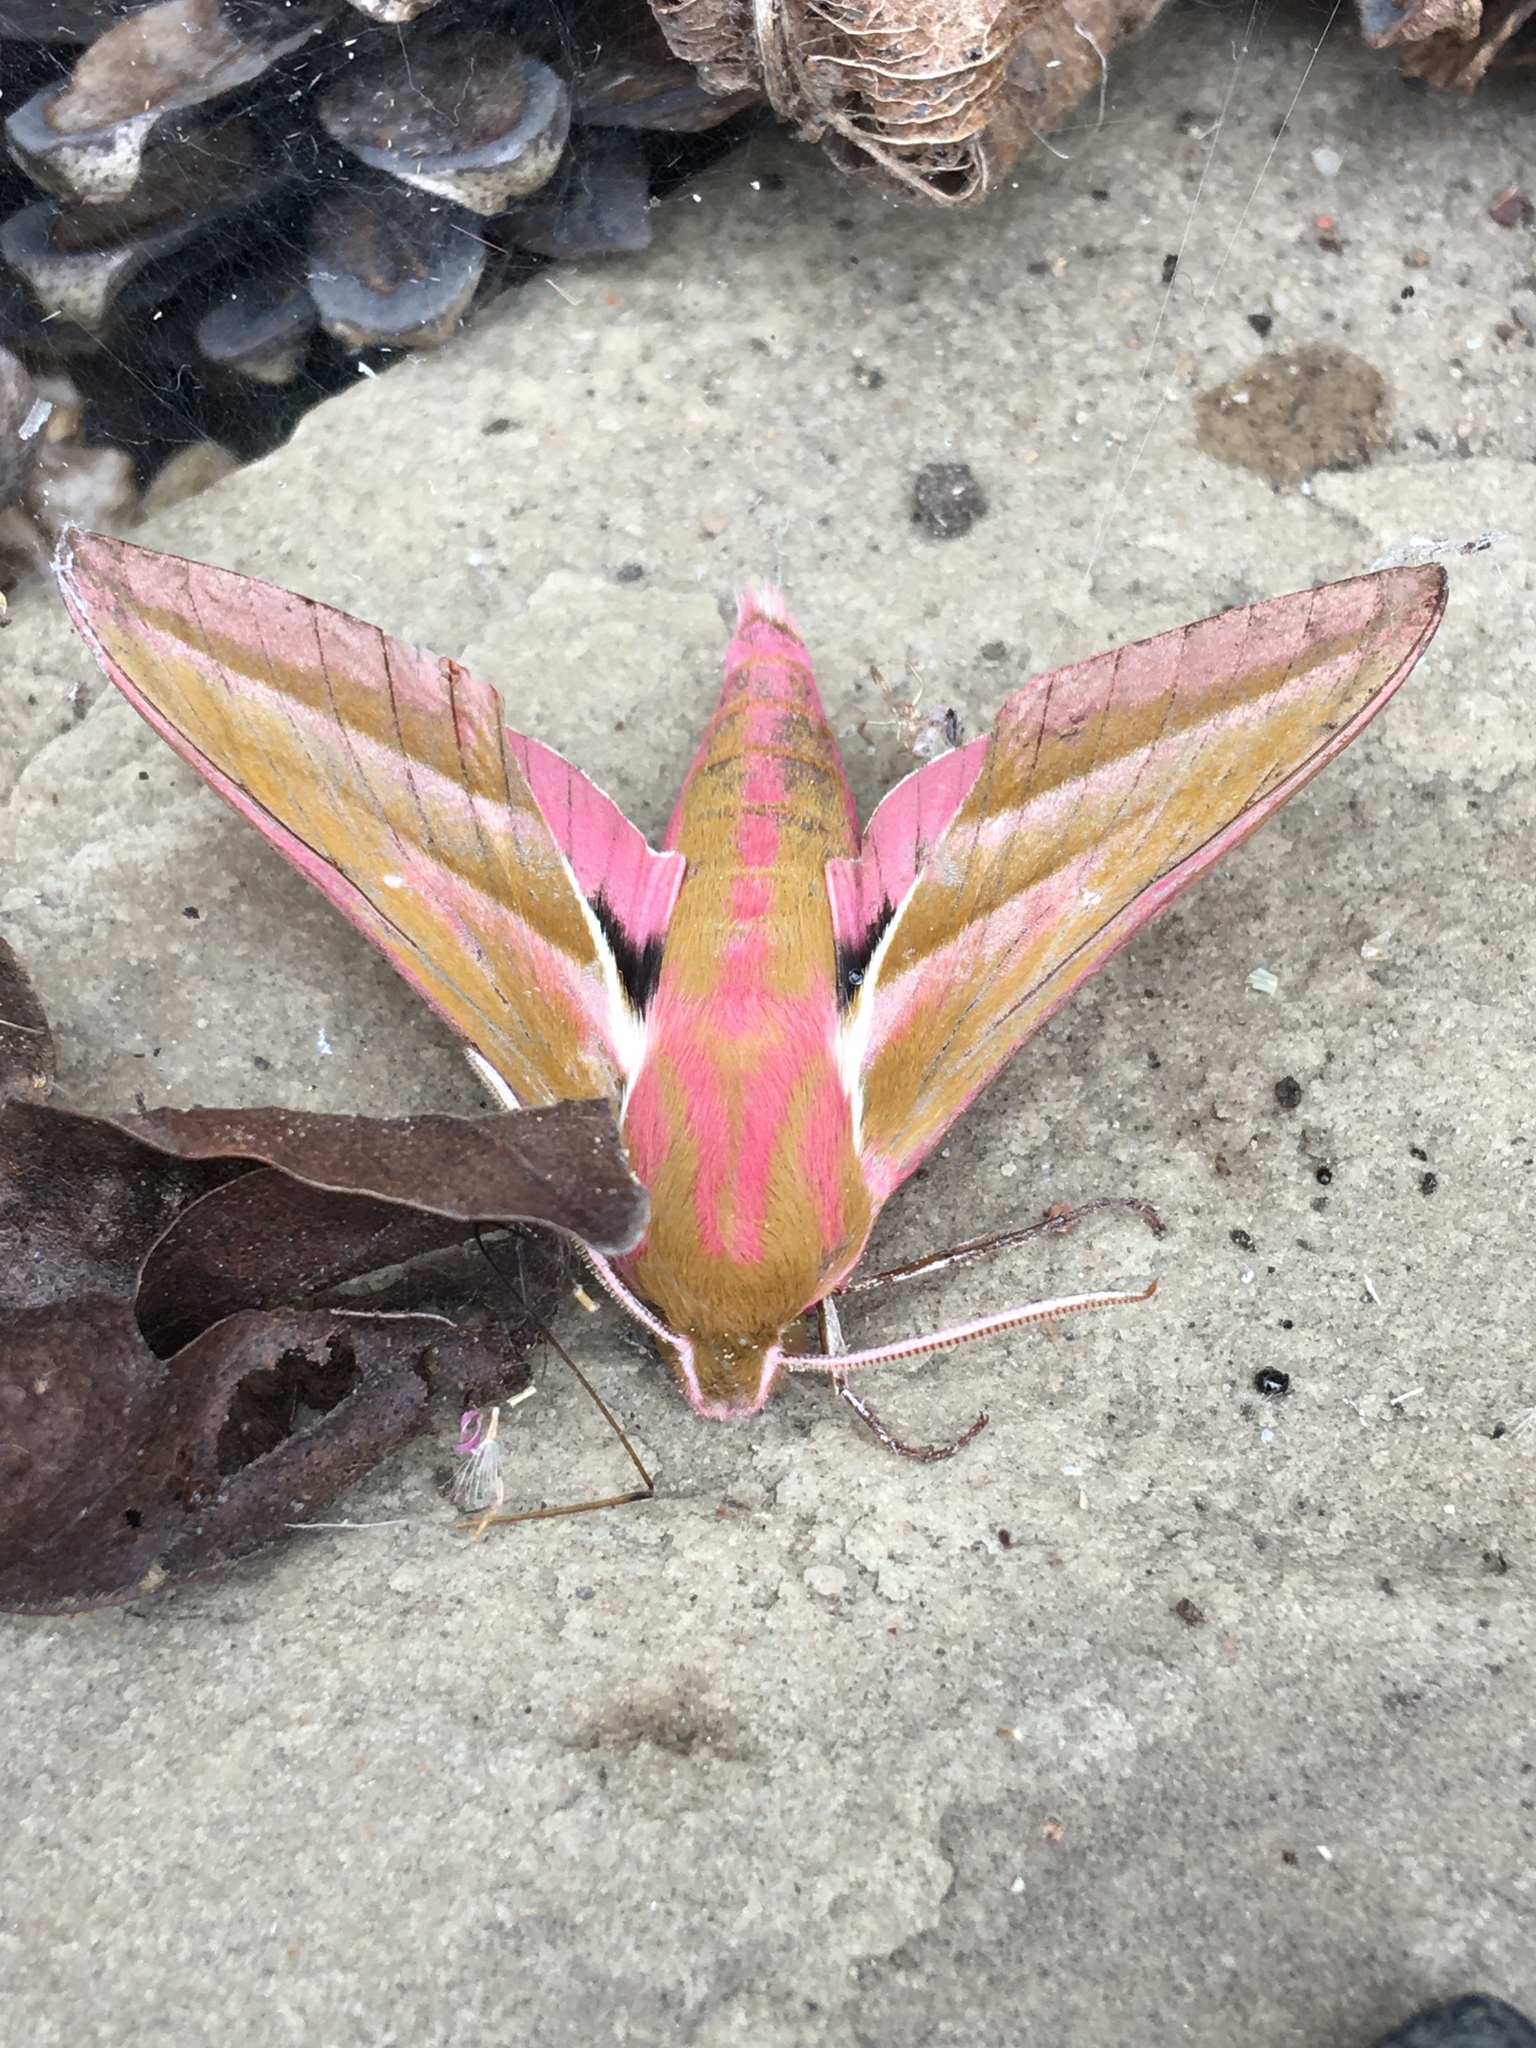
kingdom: Animalia
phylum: Arthropoda
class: Insecta
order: Lepidoptera
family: Sphingidae
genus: Deilephila
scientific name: Deilephila elpenor
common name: Elephant hawk-moth
